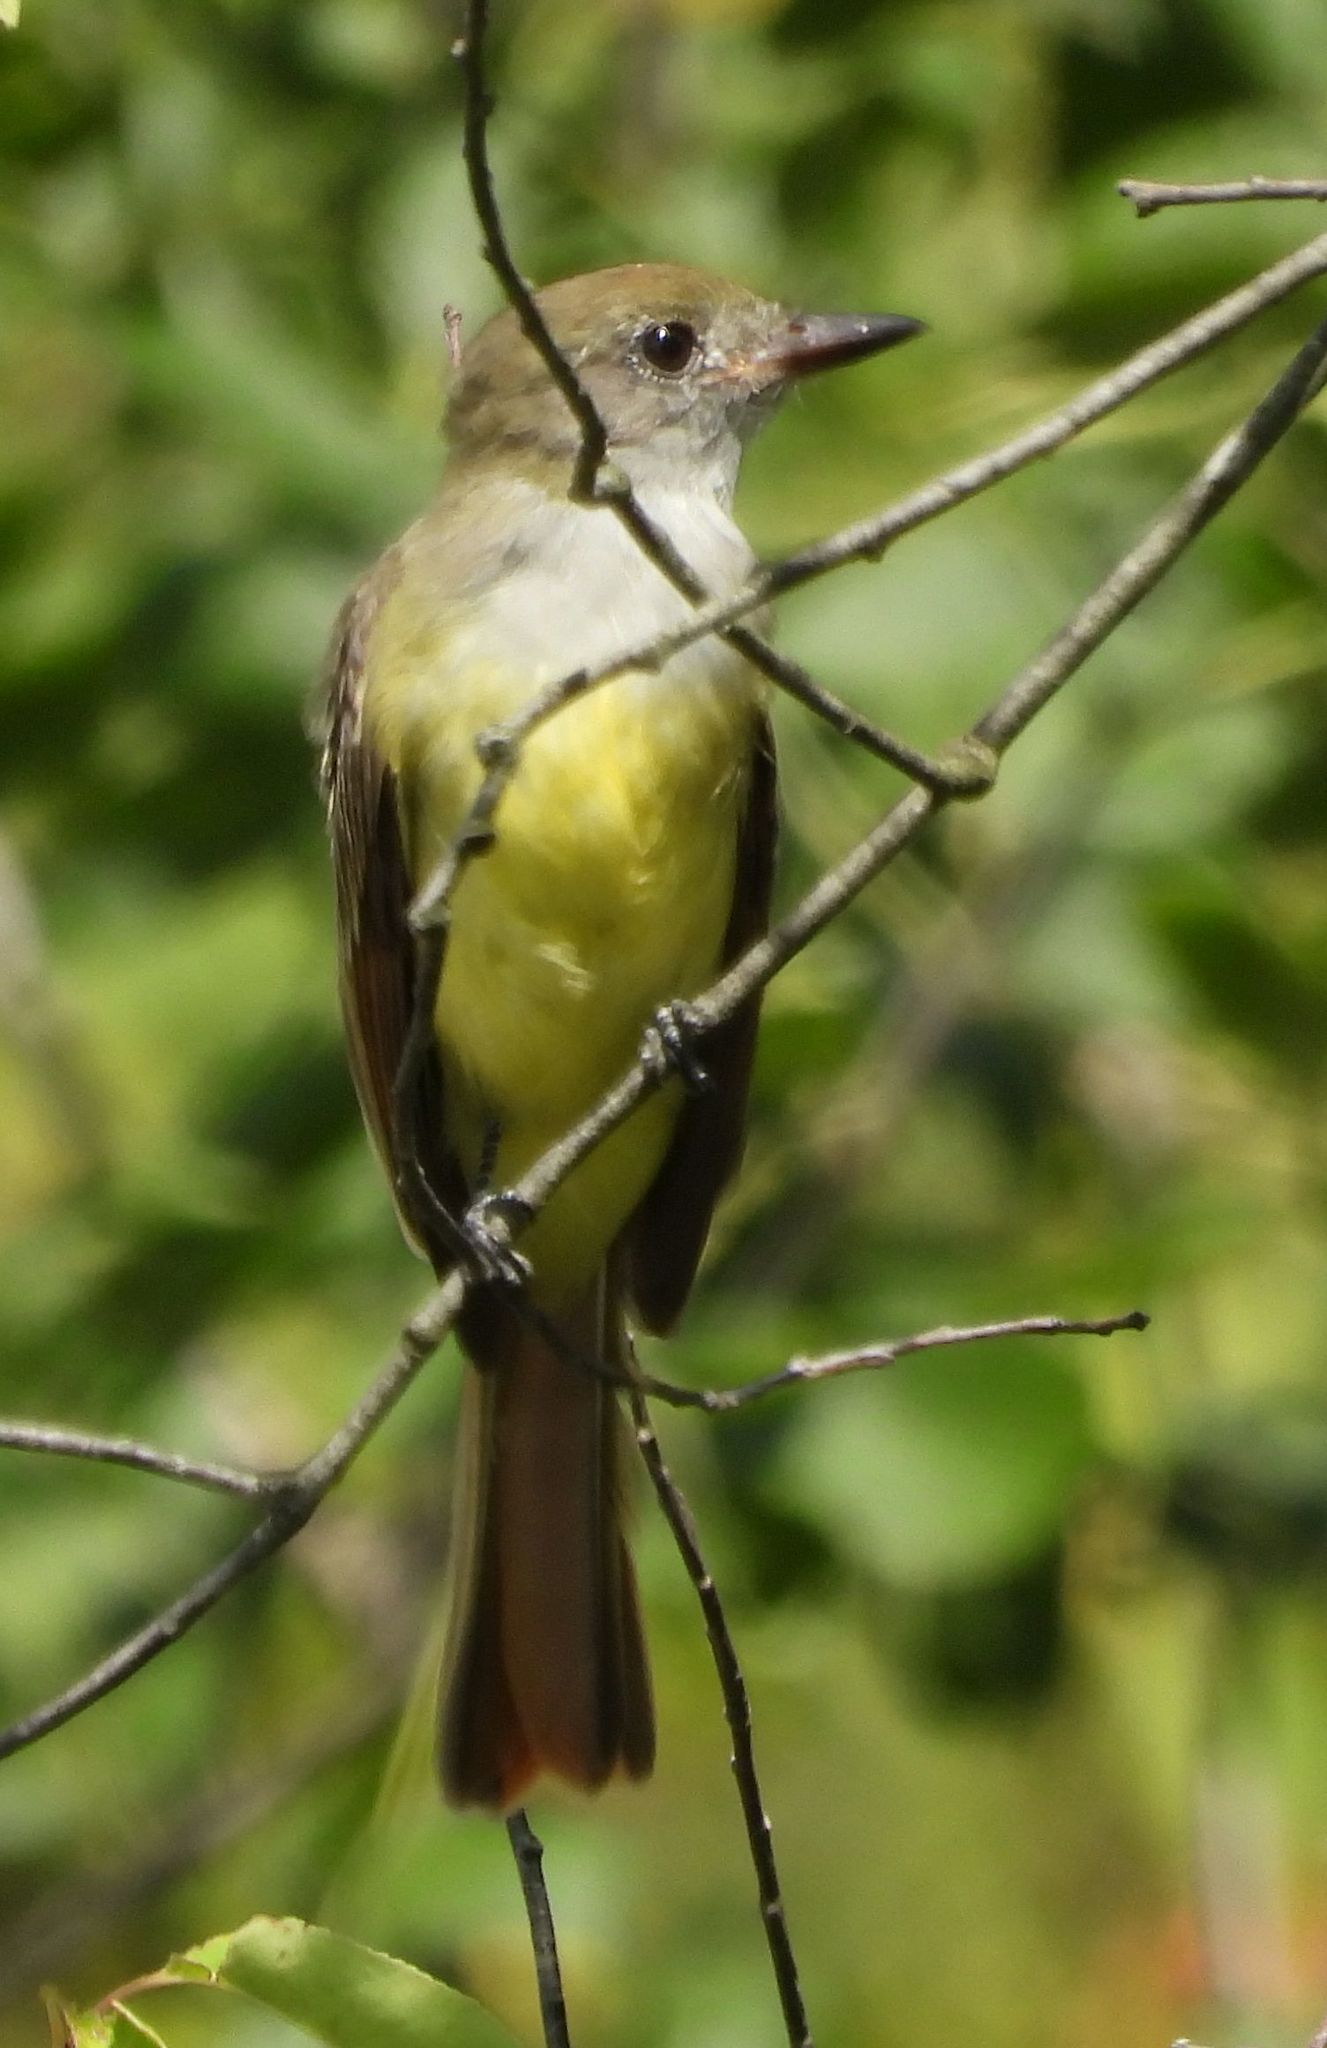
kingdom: Animalia
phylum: Chordata
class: Aves
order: Passeriformes
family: Tyrannidae
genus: Myiarchus
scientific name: Myiarchus crinitus
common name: Great crested flycatcher
